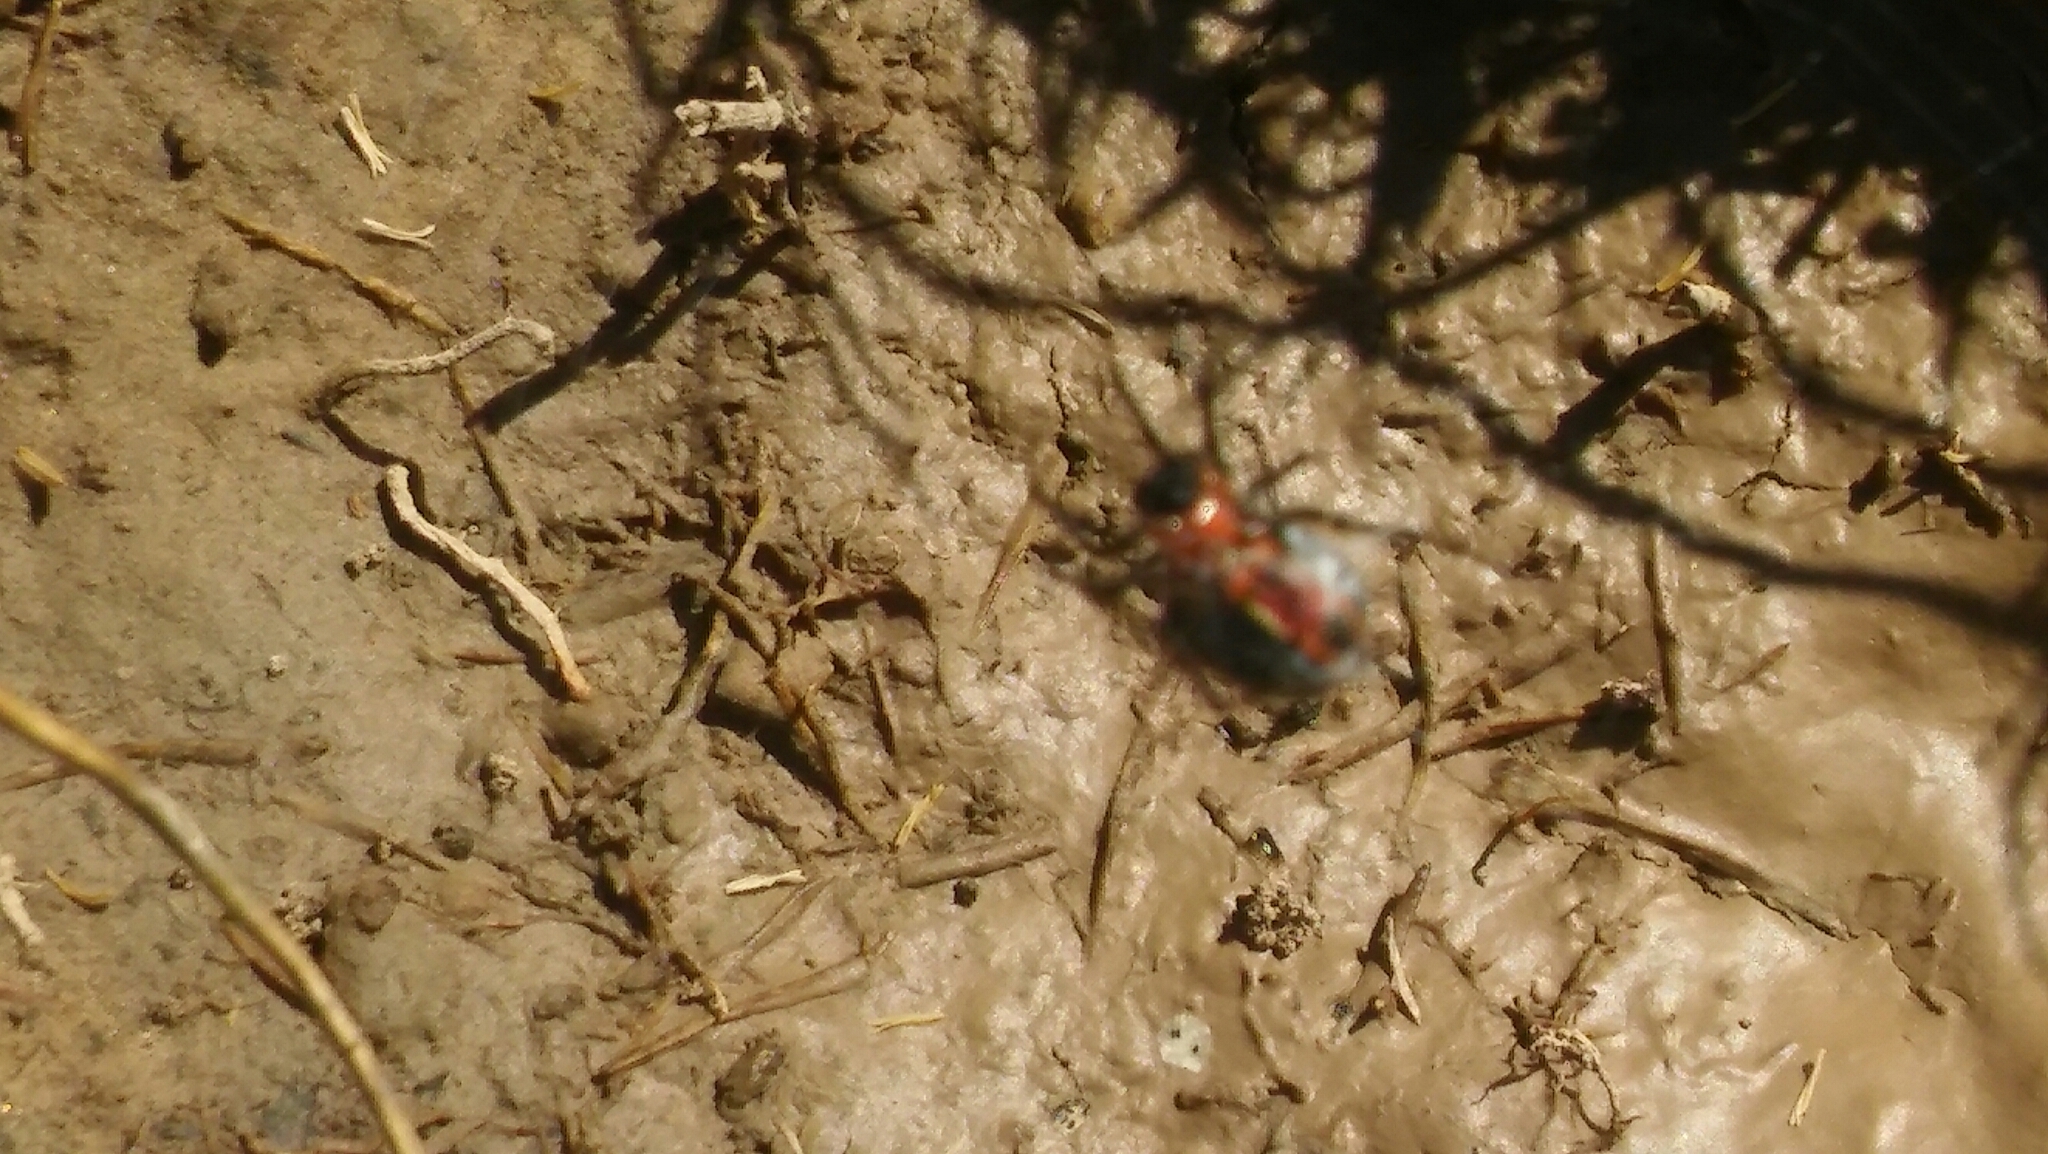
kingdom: Animalia
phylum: Arthropoda
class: Arachnida
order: Araneae
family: Araneidae
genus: Alpaida
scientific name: Alpaida versicolor
